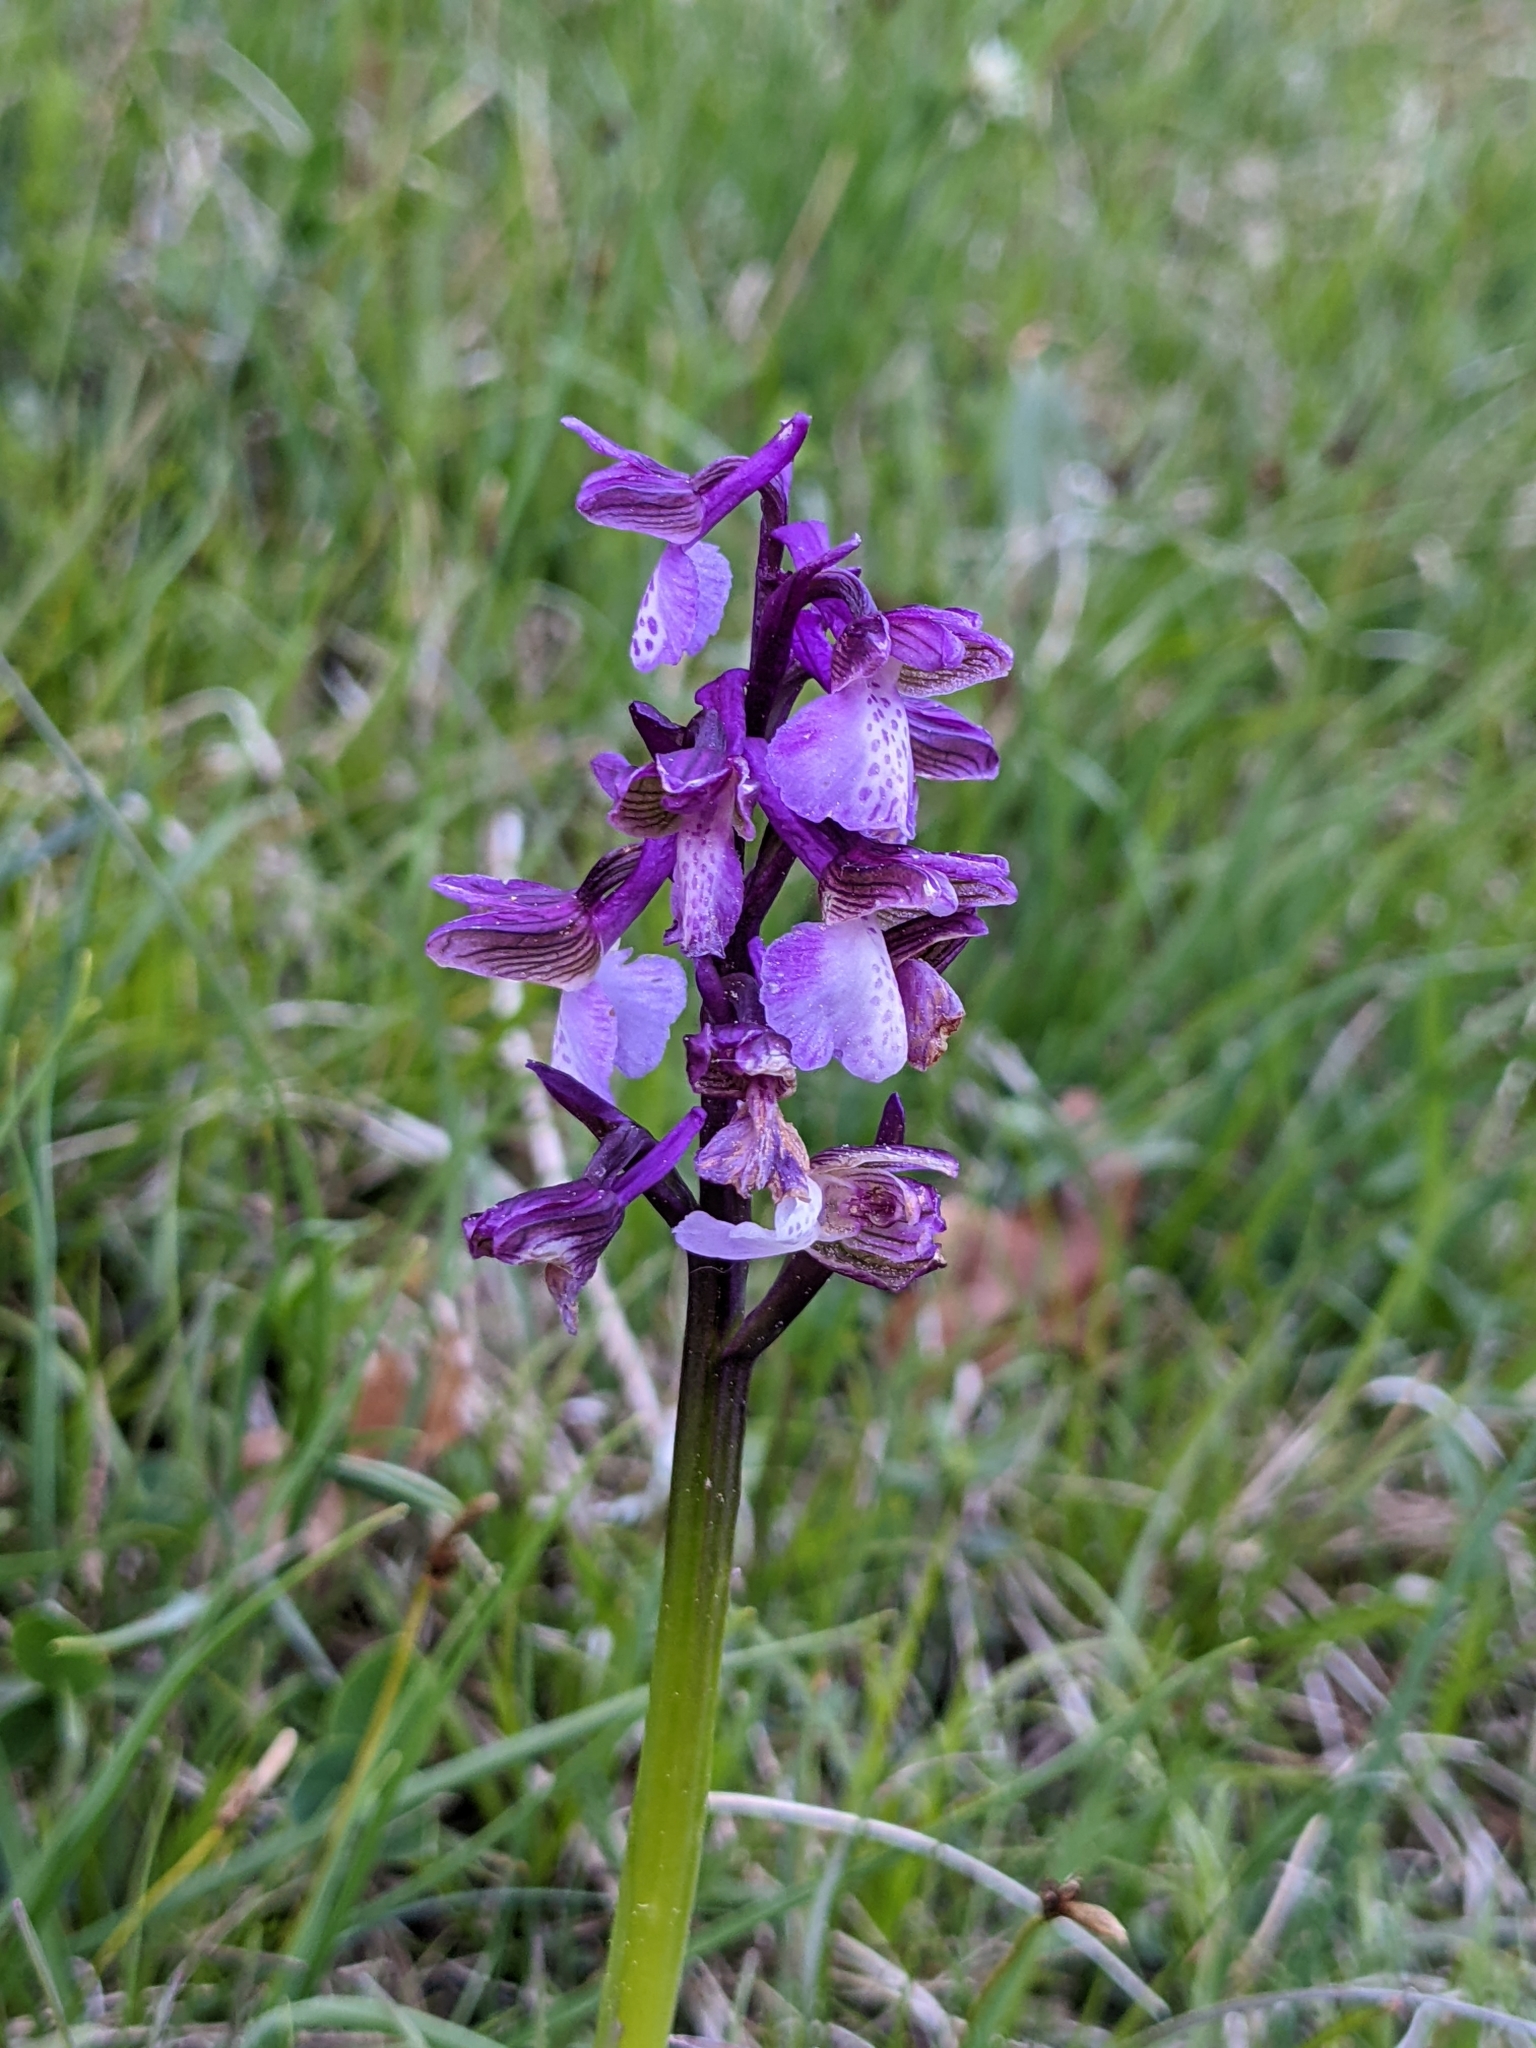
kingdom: Plantae
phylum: Tracheophyta
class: Liliopsida
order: Asparagales
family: Orchidaceae
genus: Anacamptis
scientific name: Anacamptis morio
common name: Green-winged orchid
